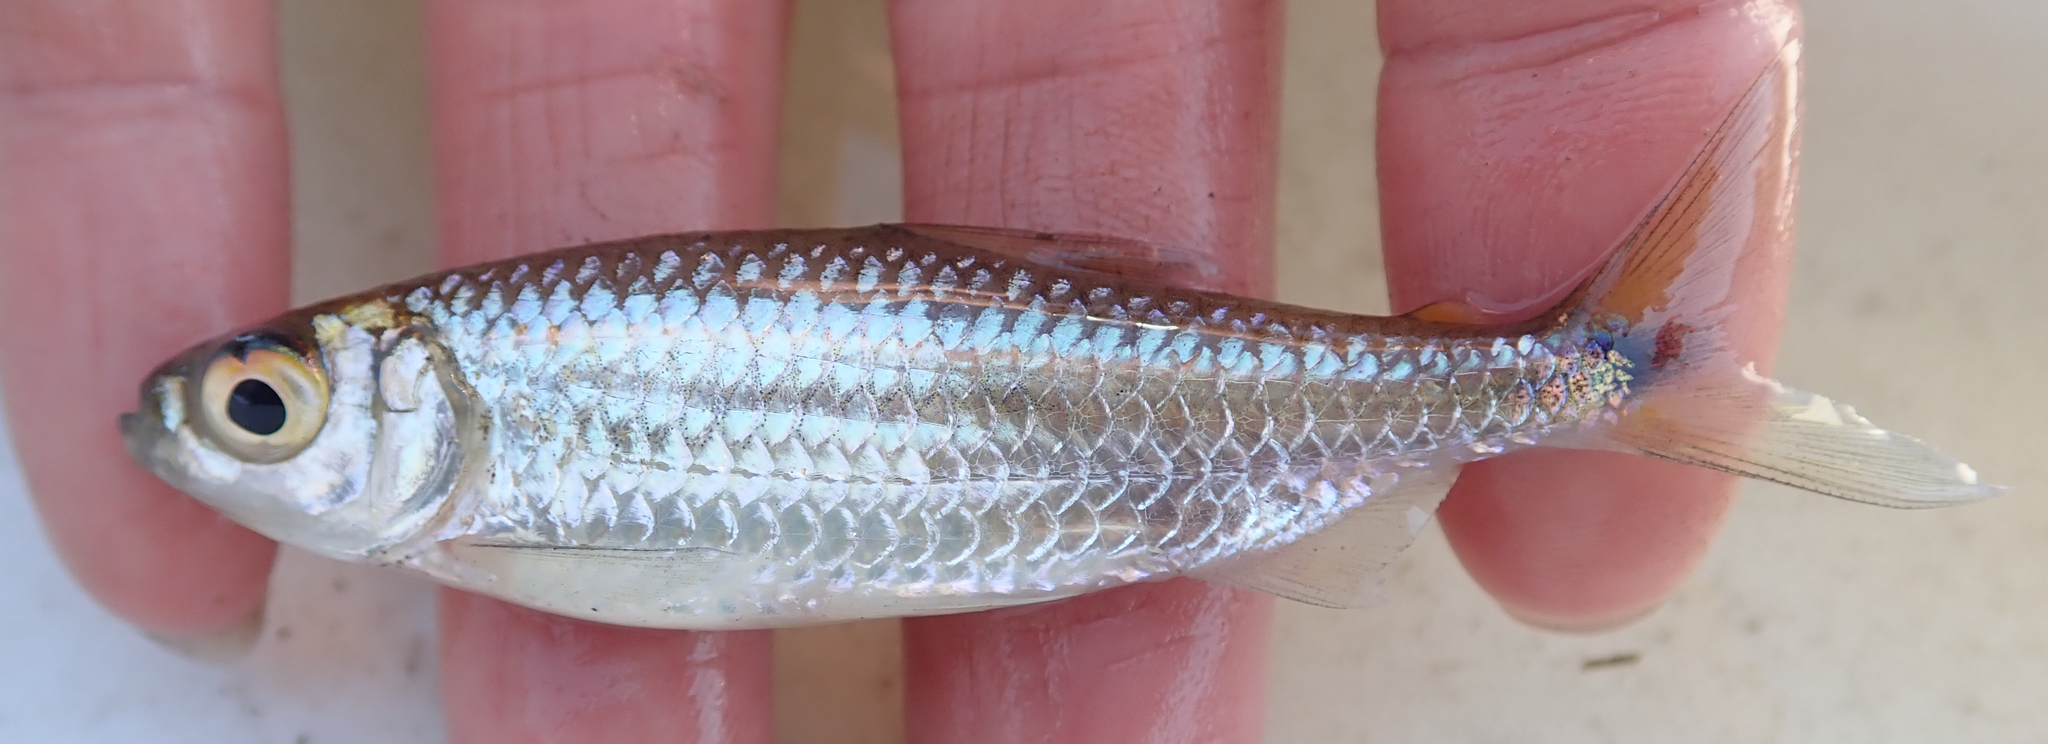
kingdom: Animalia
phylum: Chordata
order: Characiformes
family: Alestidae
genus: Alestes
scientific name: Alestes
